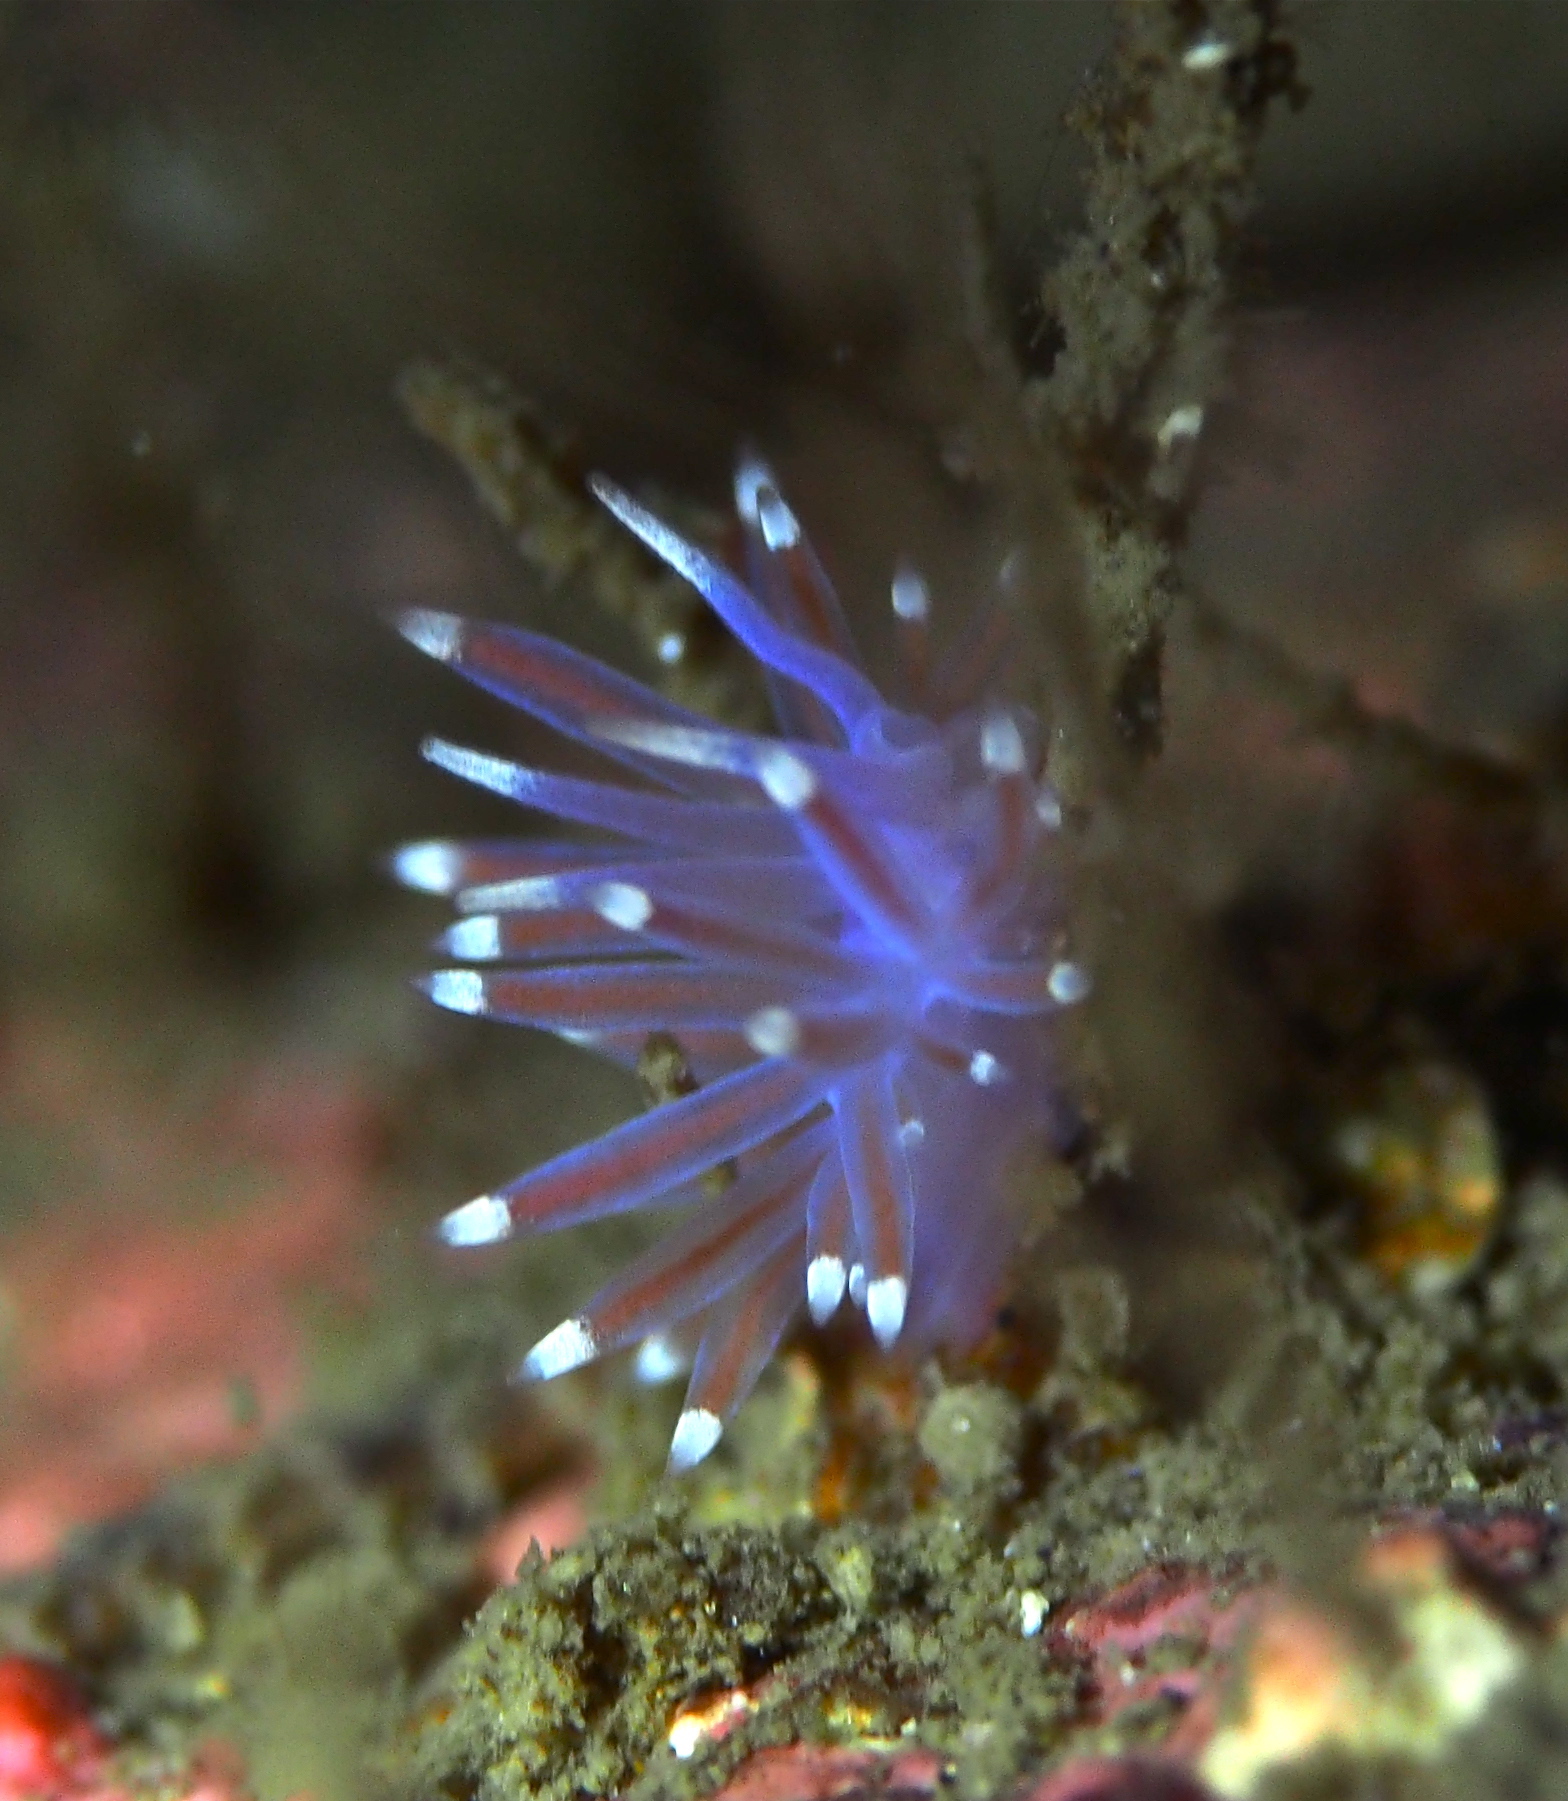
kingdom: Animalia
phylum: Mollusca
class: Gastropoda
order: Nudibranchia
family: Flabellinidae
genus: Edmundsella
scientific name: Edmundsella pedata
